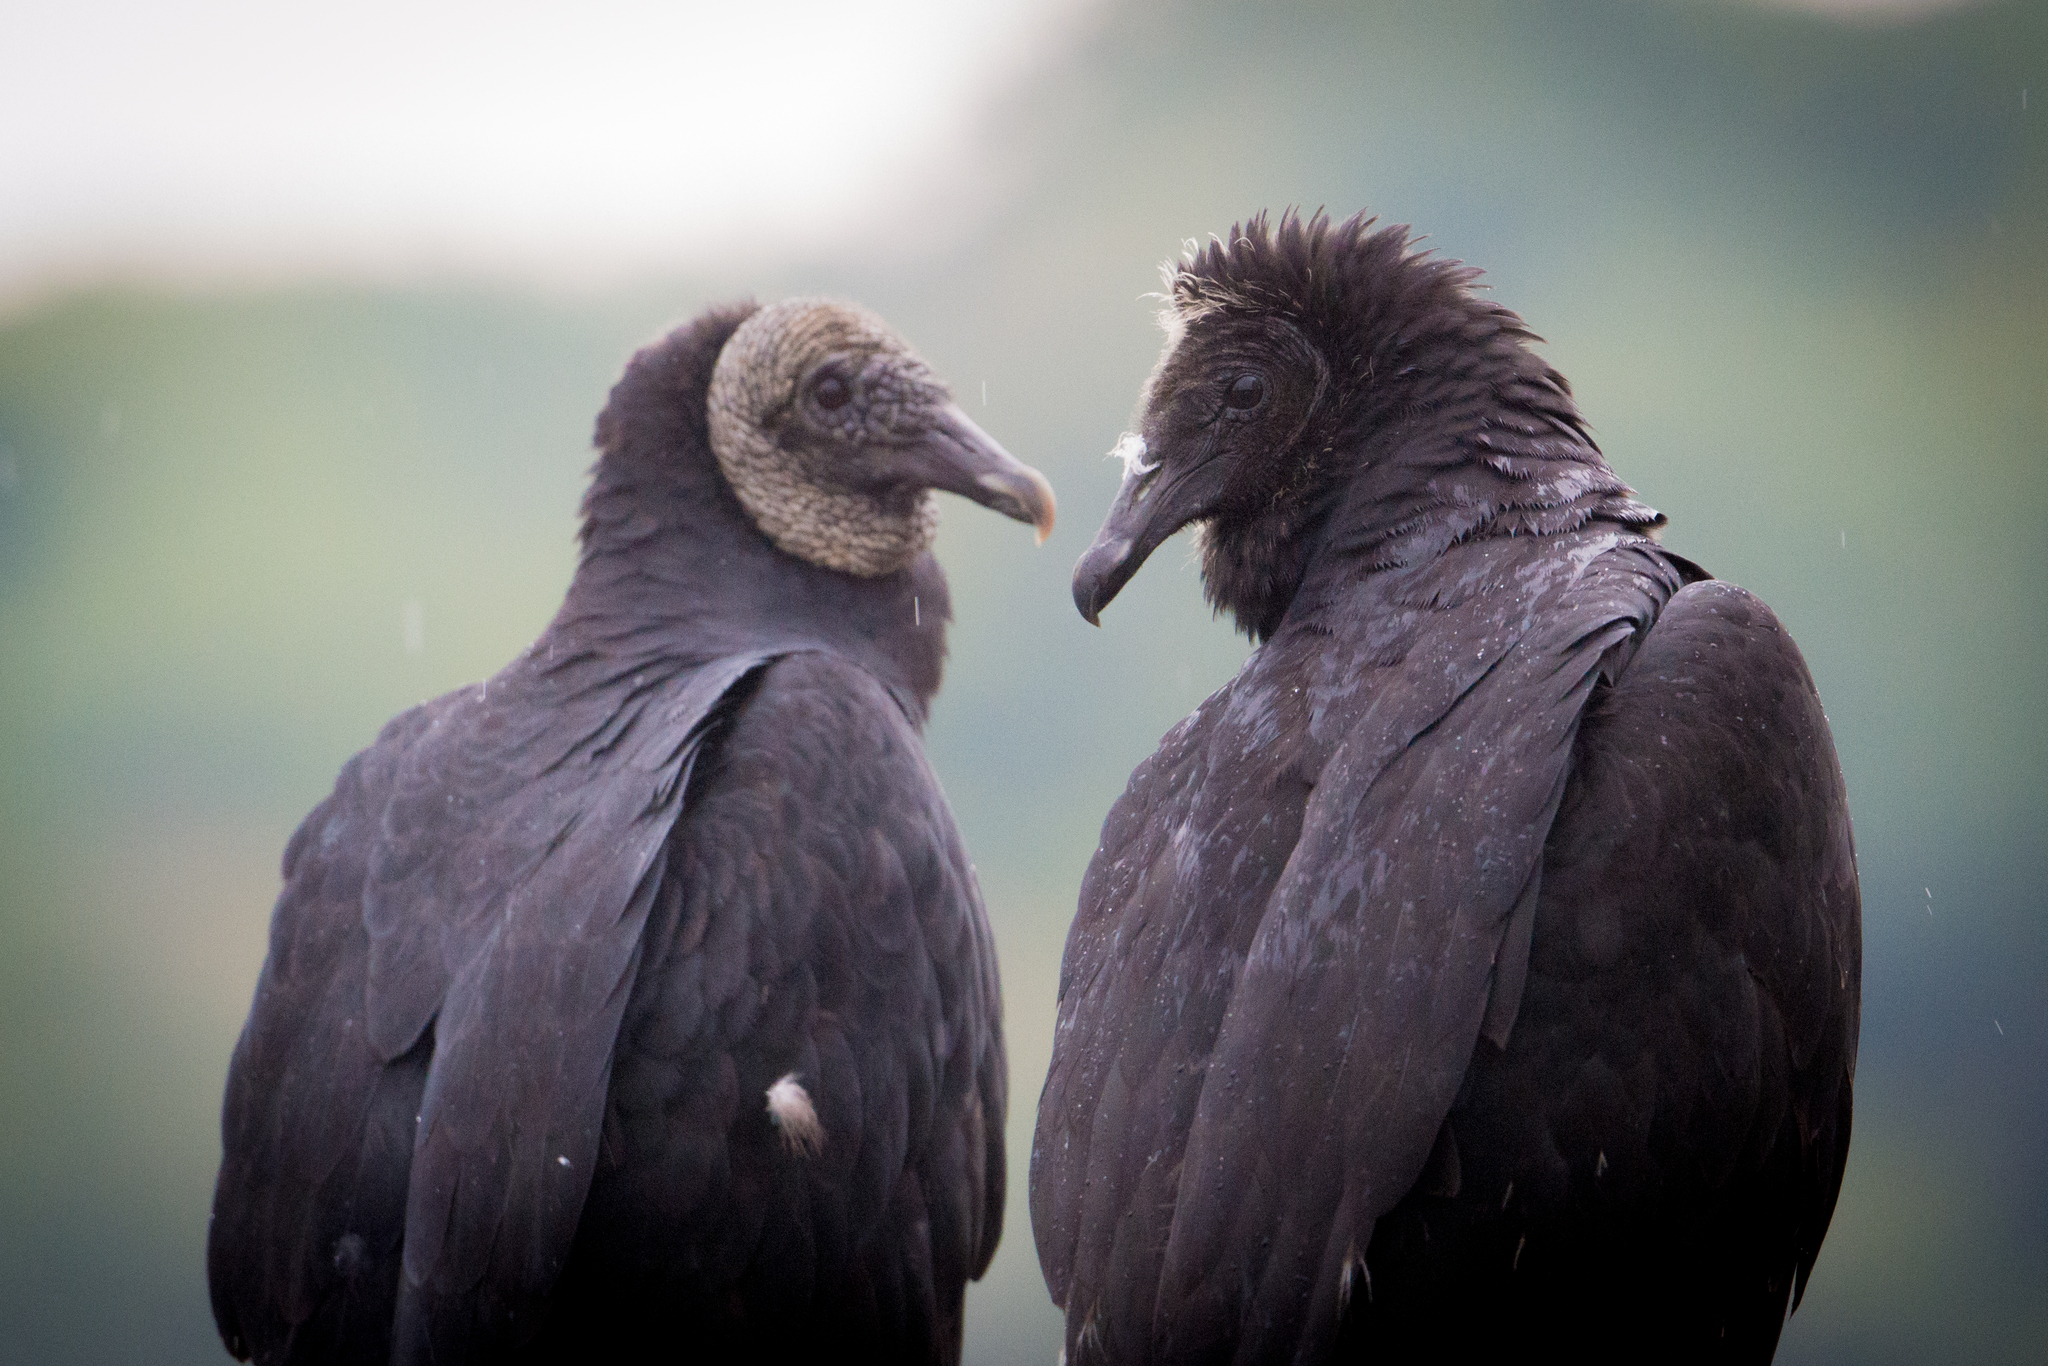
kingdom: Animalia
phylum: Chordata
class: Aves
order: Accipitriformes
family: Cathartidae
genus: Coragyps
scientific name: Coragyps atratus
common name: Black vulture
